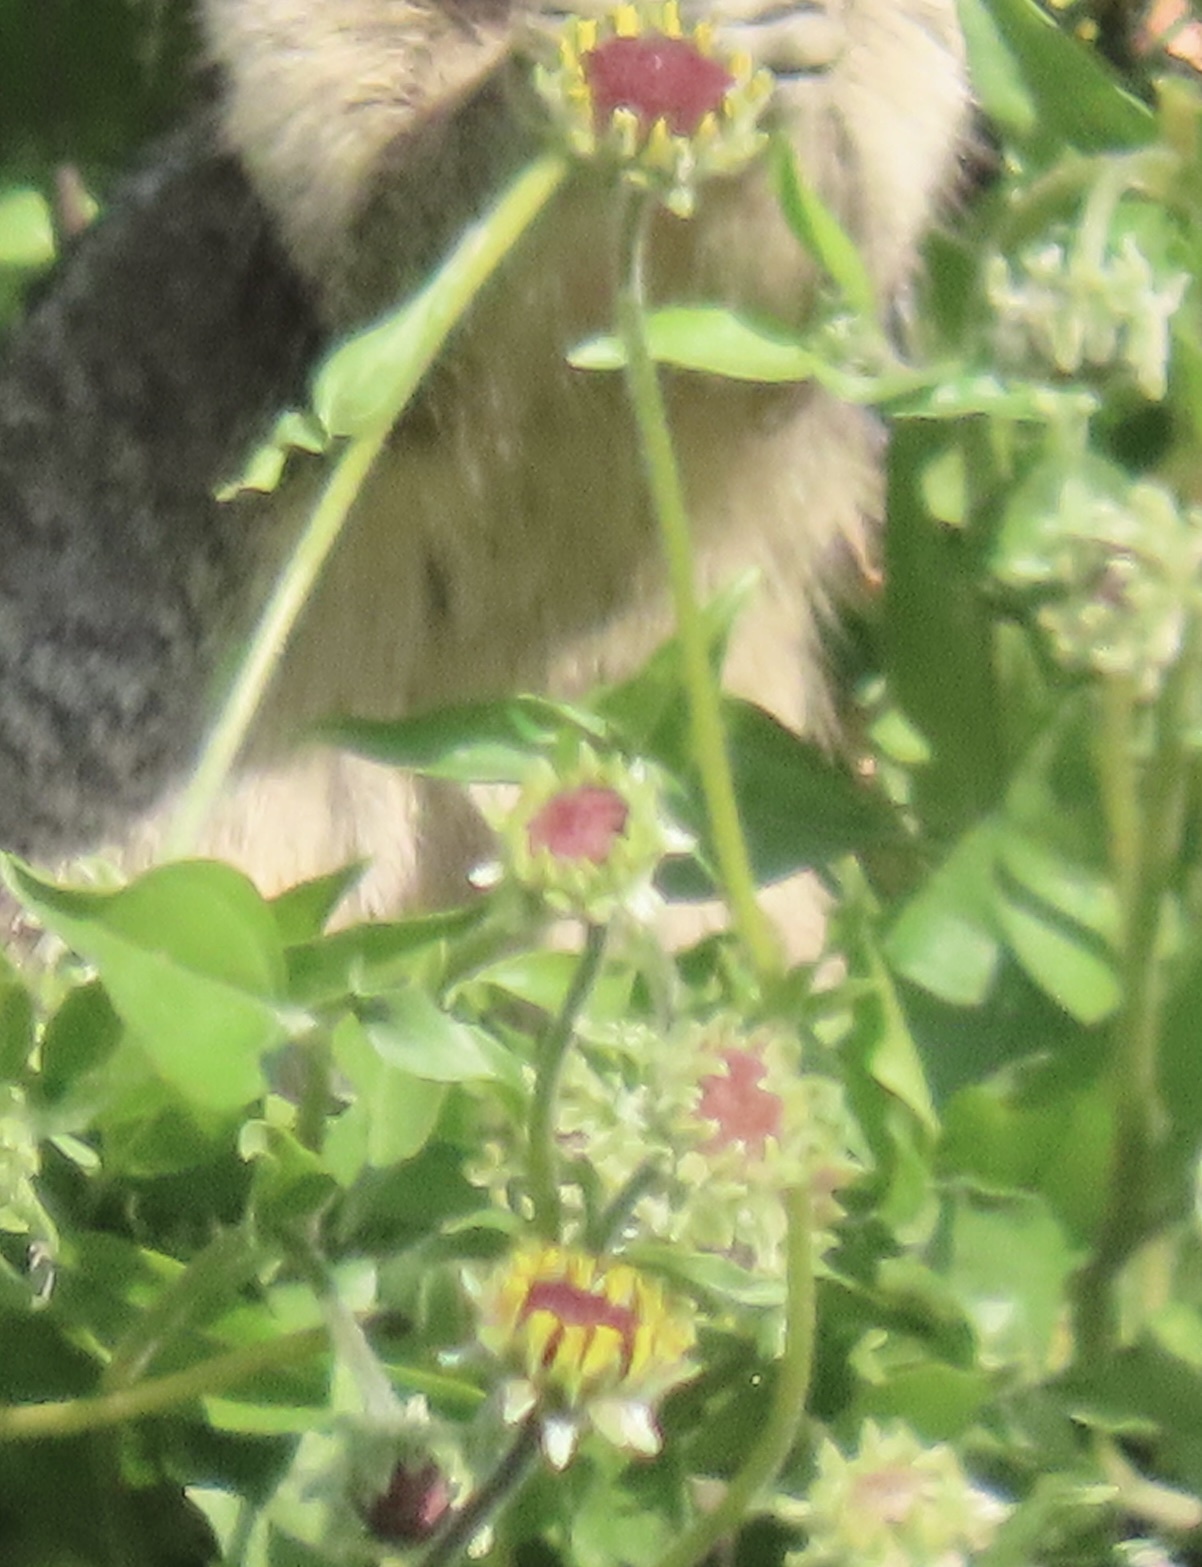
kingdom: Plantae
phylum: Tracheophyta
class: Magnoliopsida
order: Asterales
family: Asteraceae
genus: Encelia
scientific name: Encelia californica
